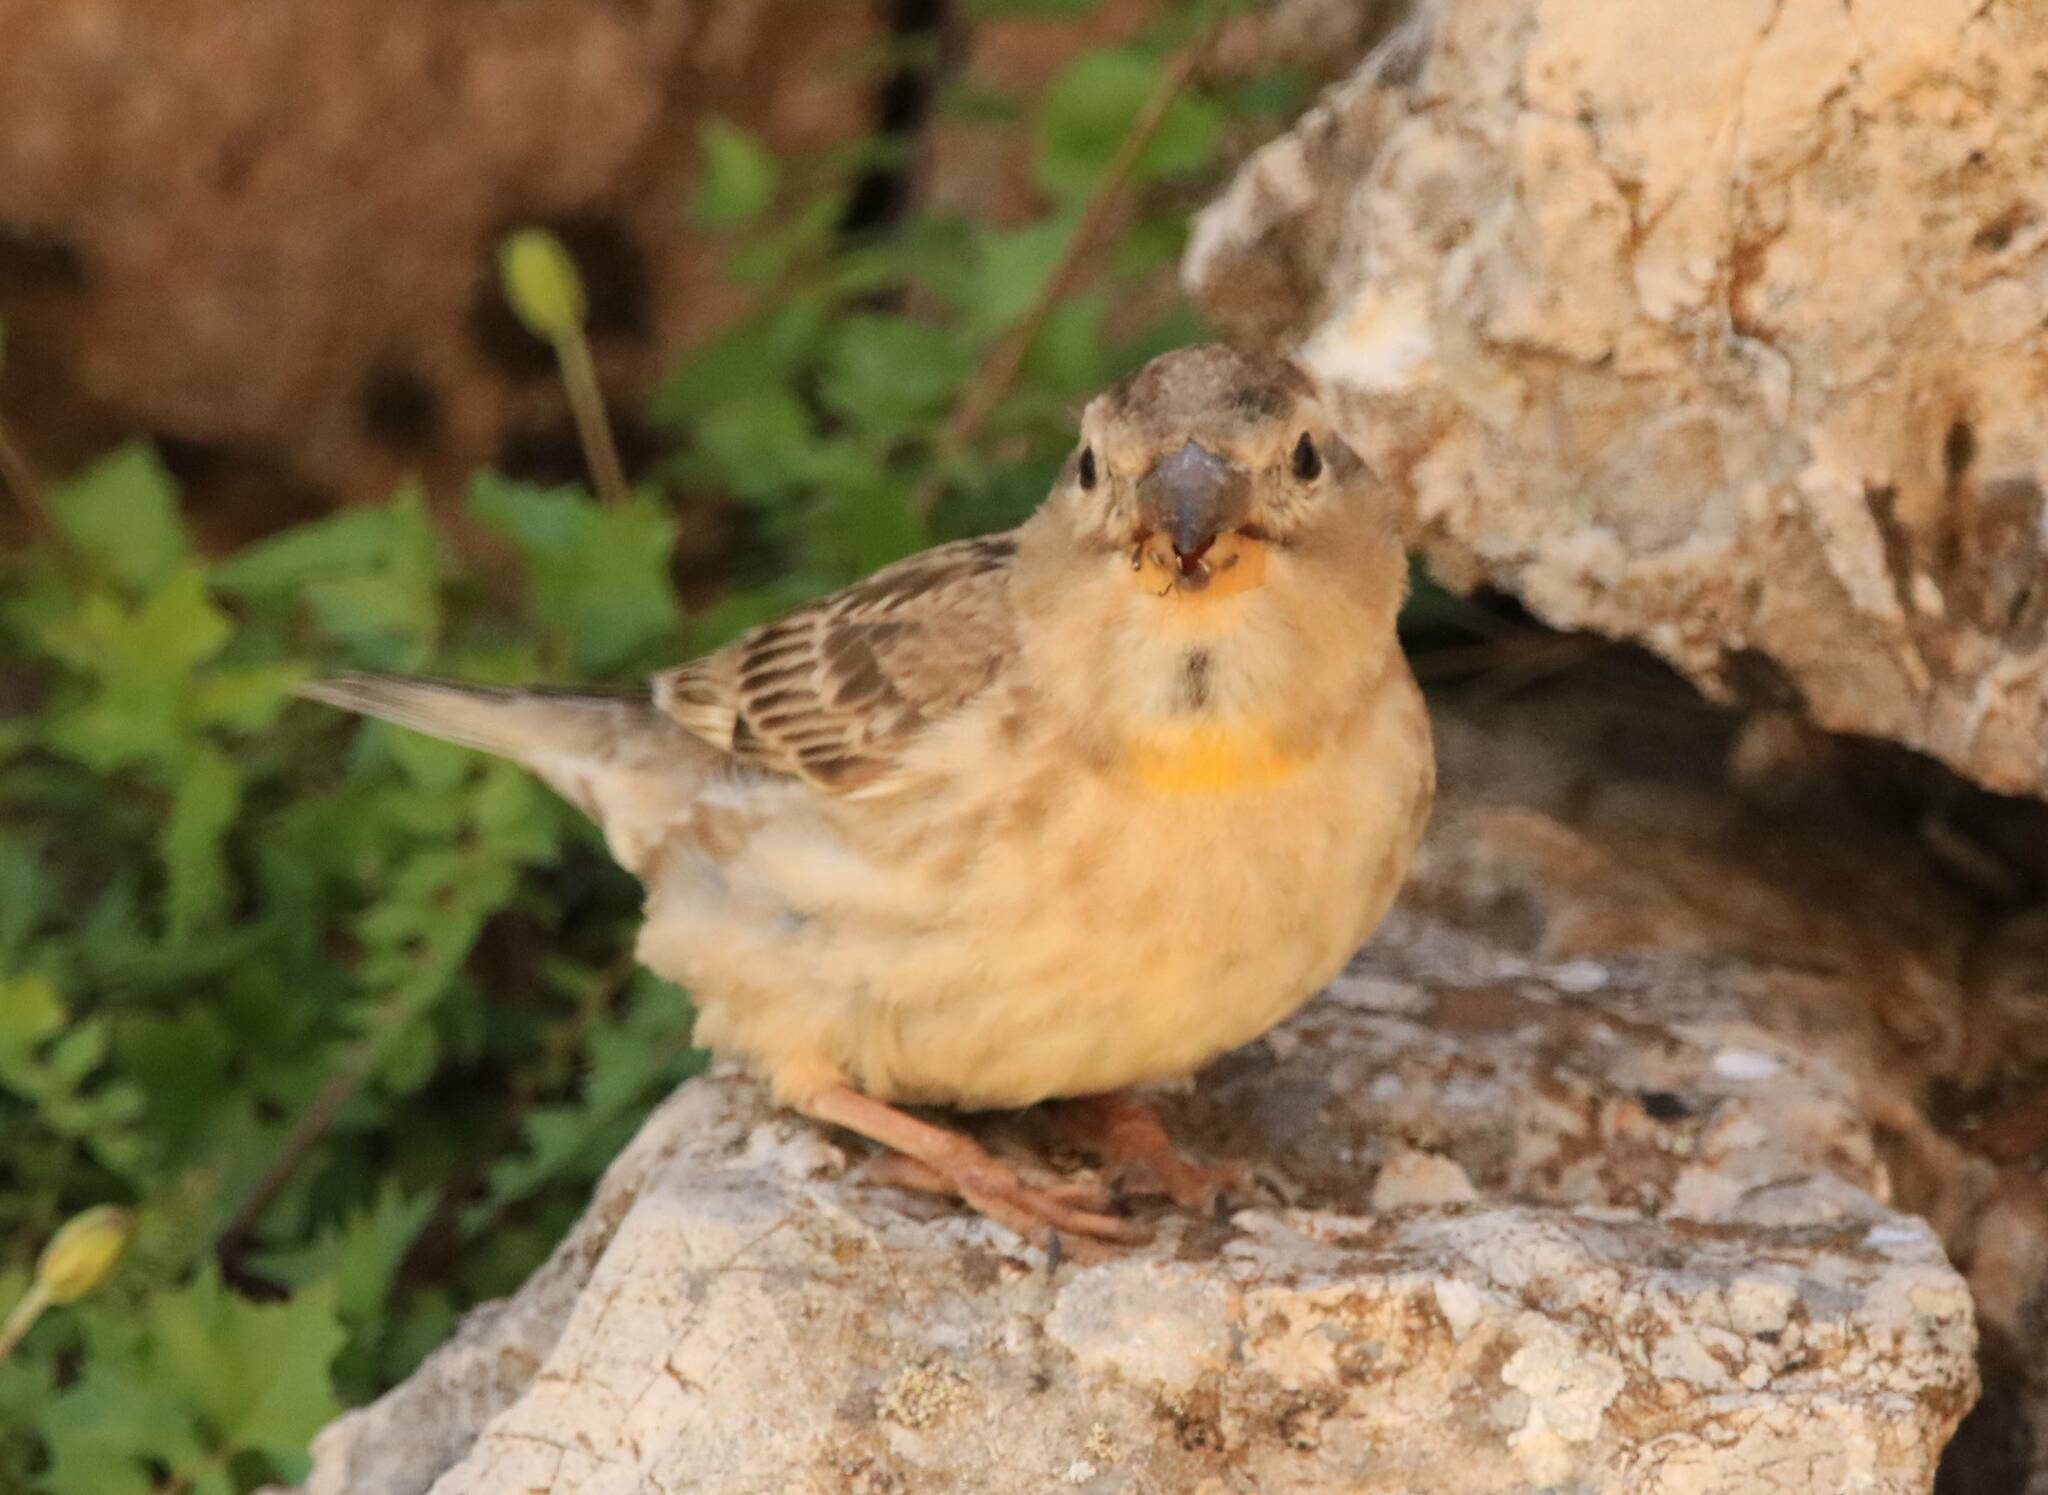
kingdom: Animalia
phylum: Chordata
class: Aves
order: Passeriformes
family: Passeridae
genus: Petronia
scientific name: Petronia petronia
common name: Rock sparrow
